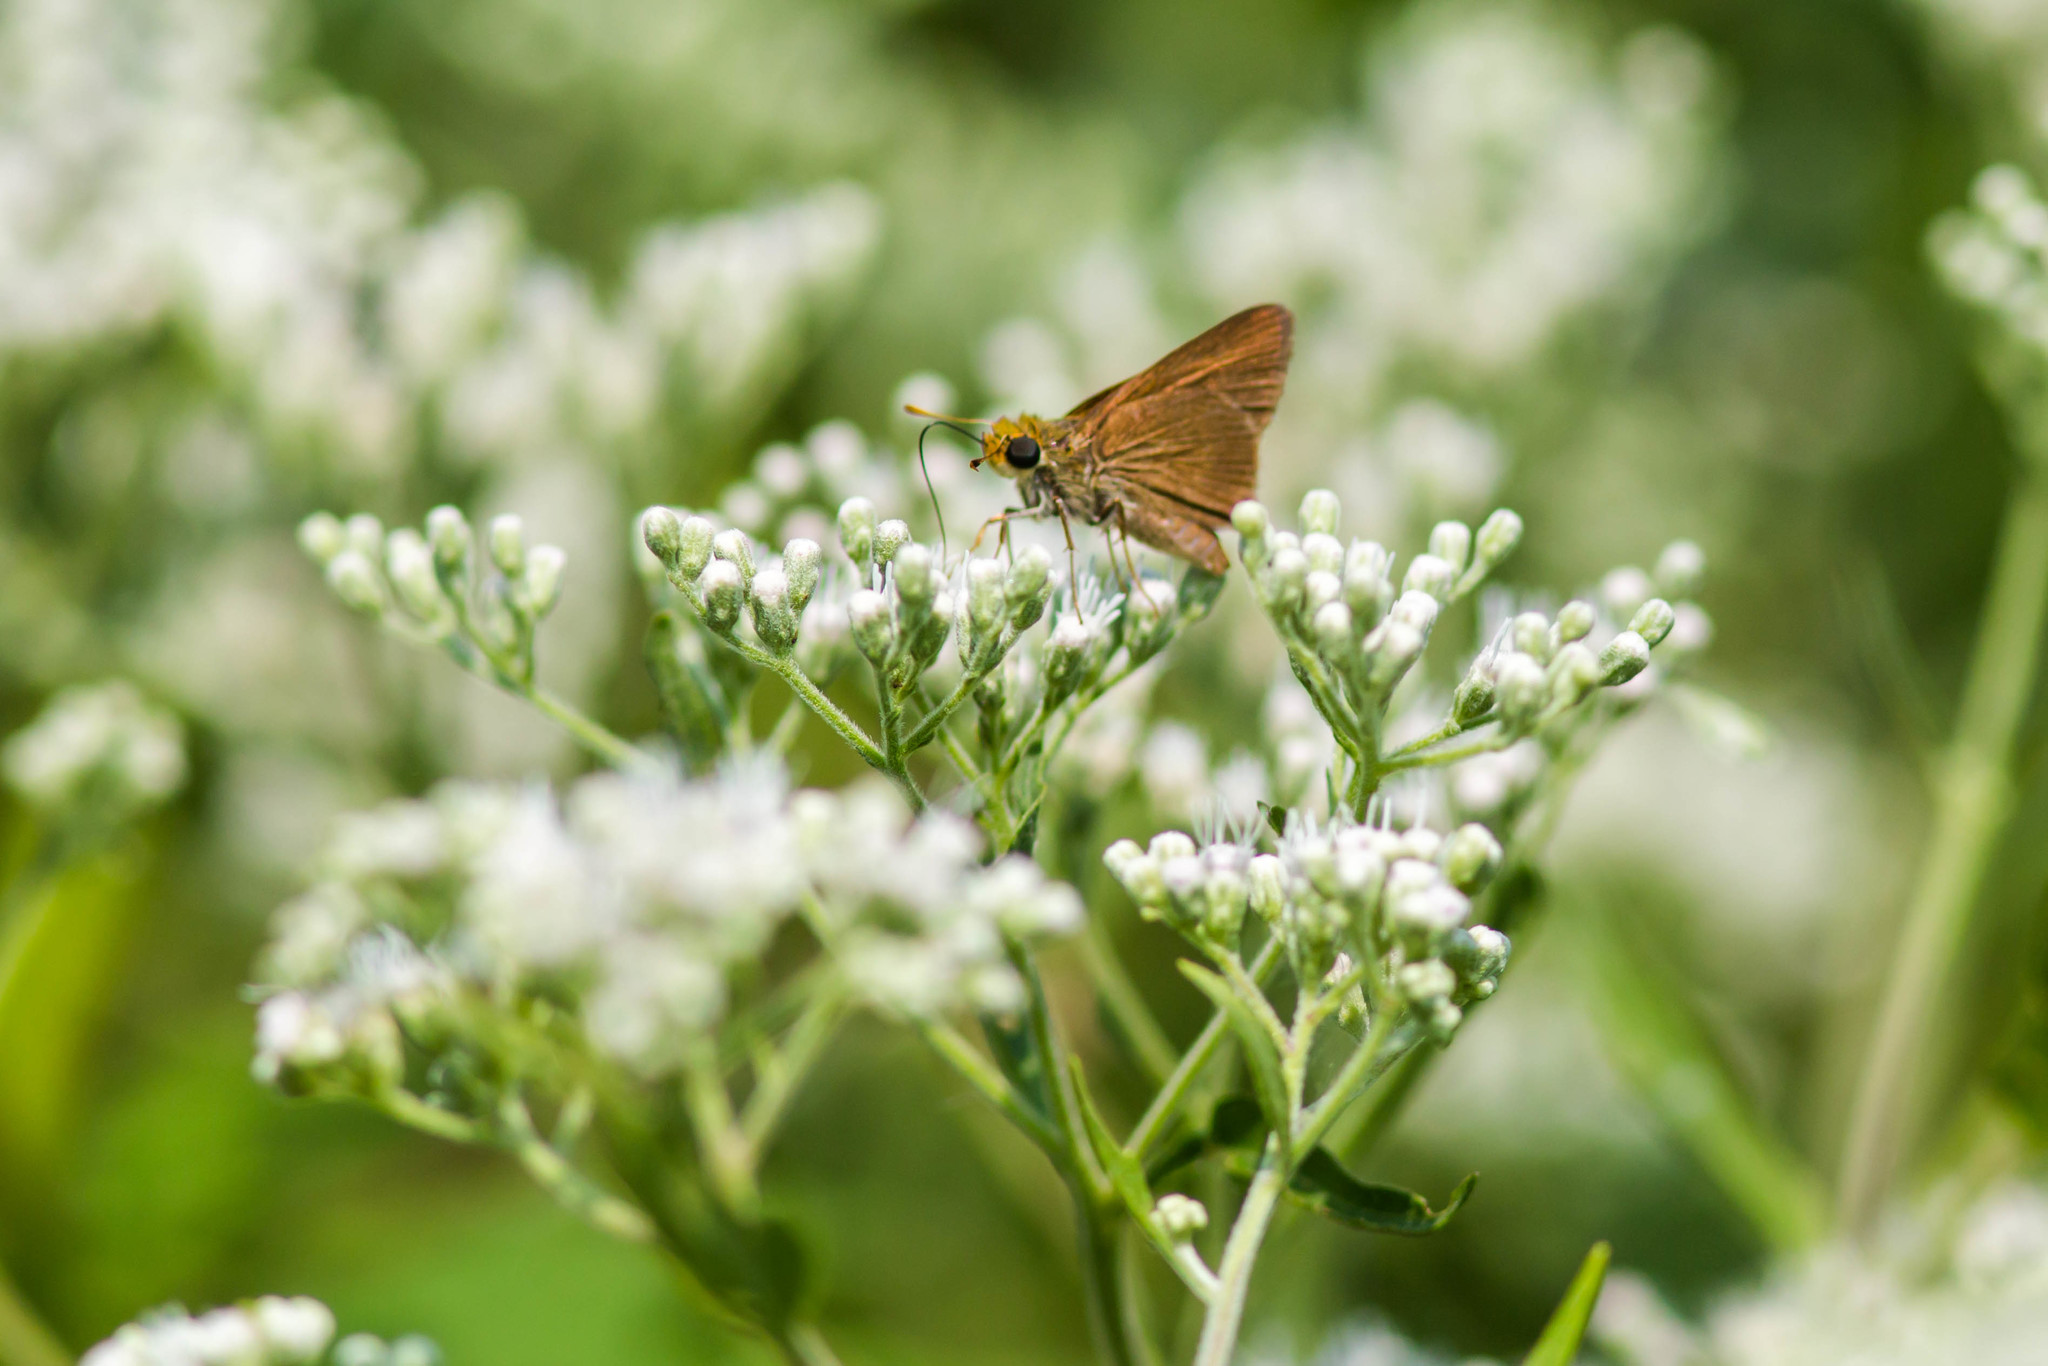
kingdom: Animalia
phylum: Arthropoda
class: Insecta
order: Lepidoptera
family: Hesperiidae
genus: Euphyes
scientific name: Euphyes vestris
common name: Dun skipper
